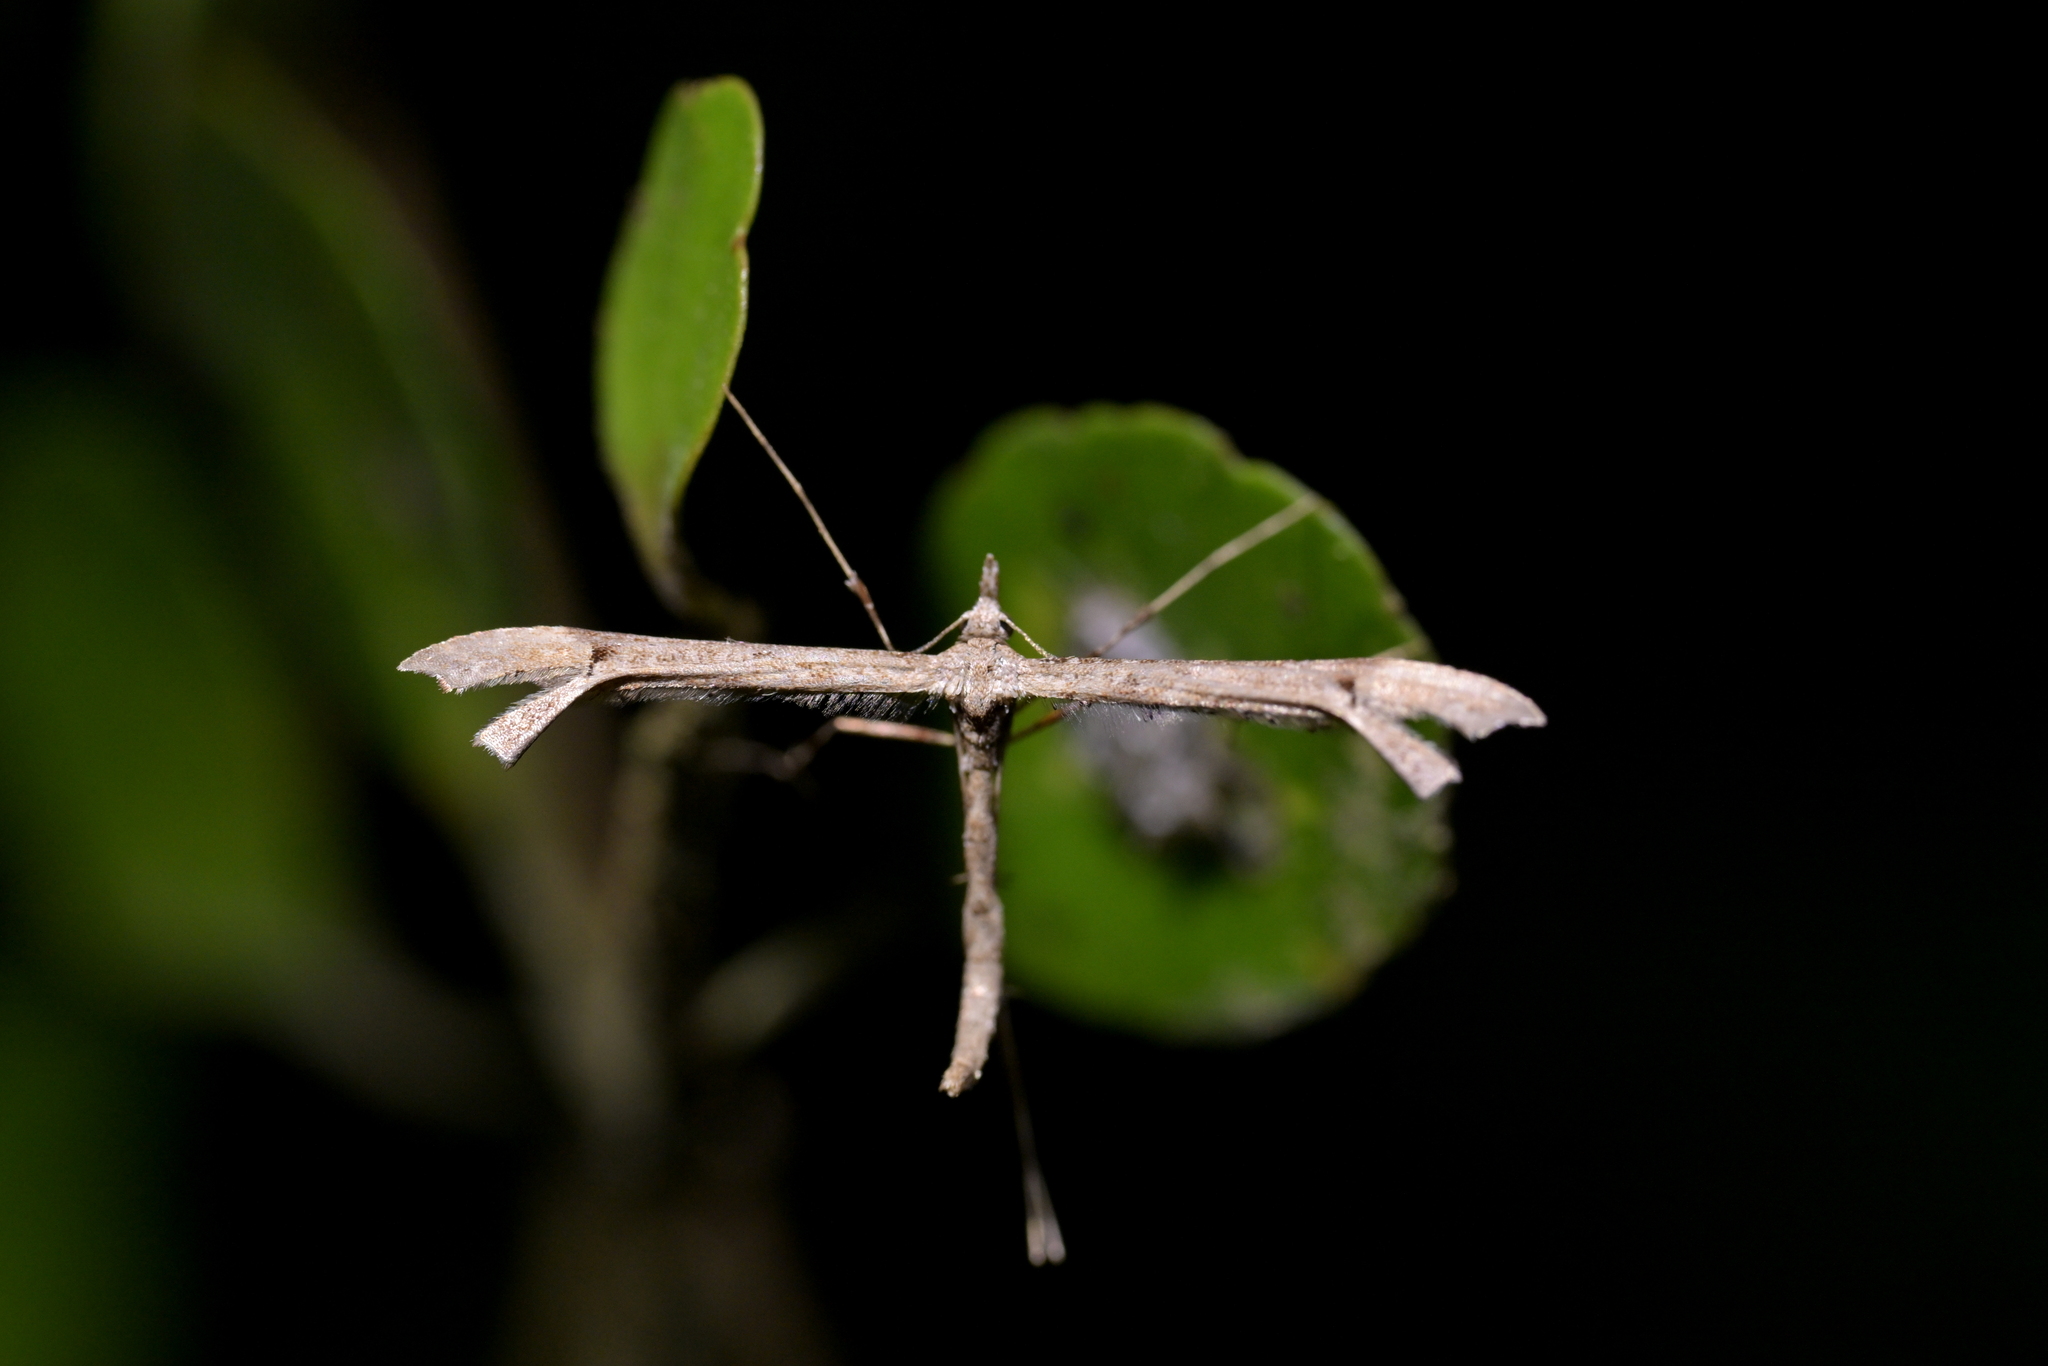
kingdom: Animalia
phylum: Arthropoda
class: Insecta
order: Lepidoptera
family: Pterophoridae
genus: Amblyptilia
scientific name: Amblyptilia repletalis
